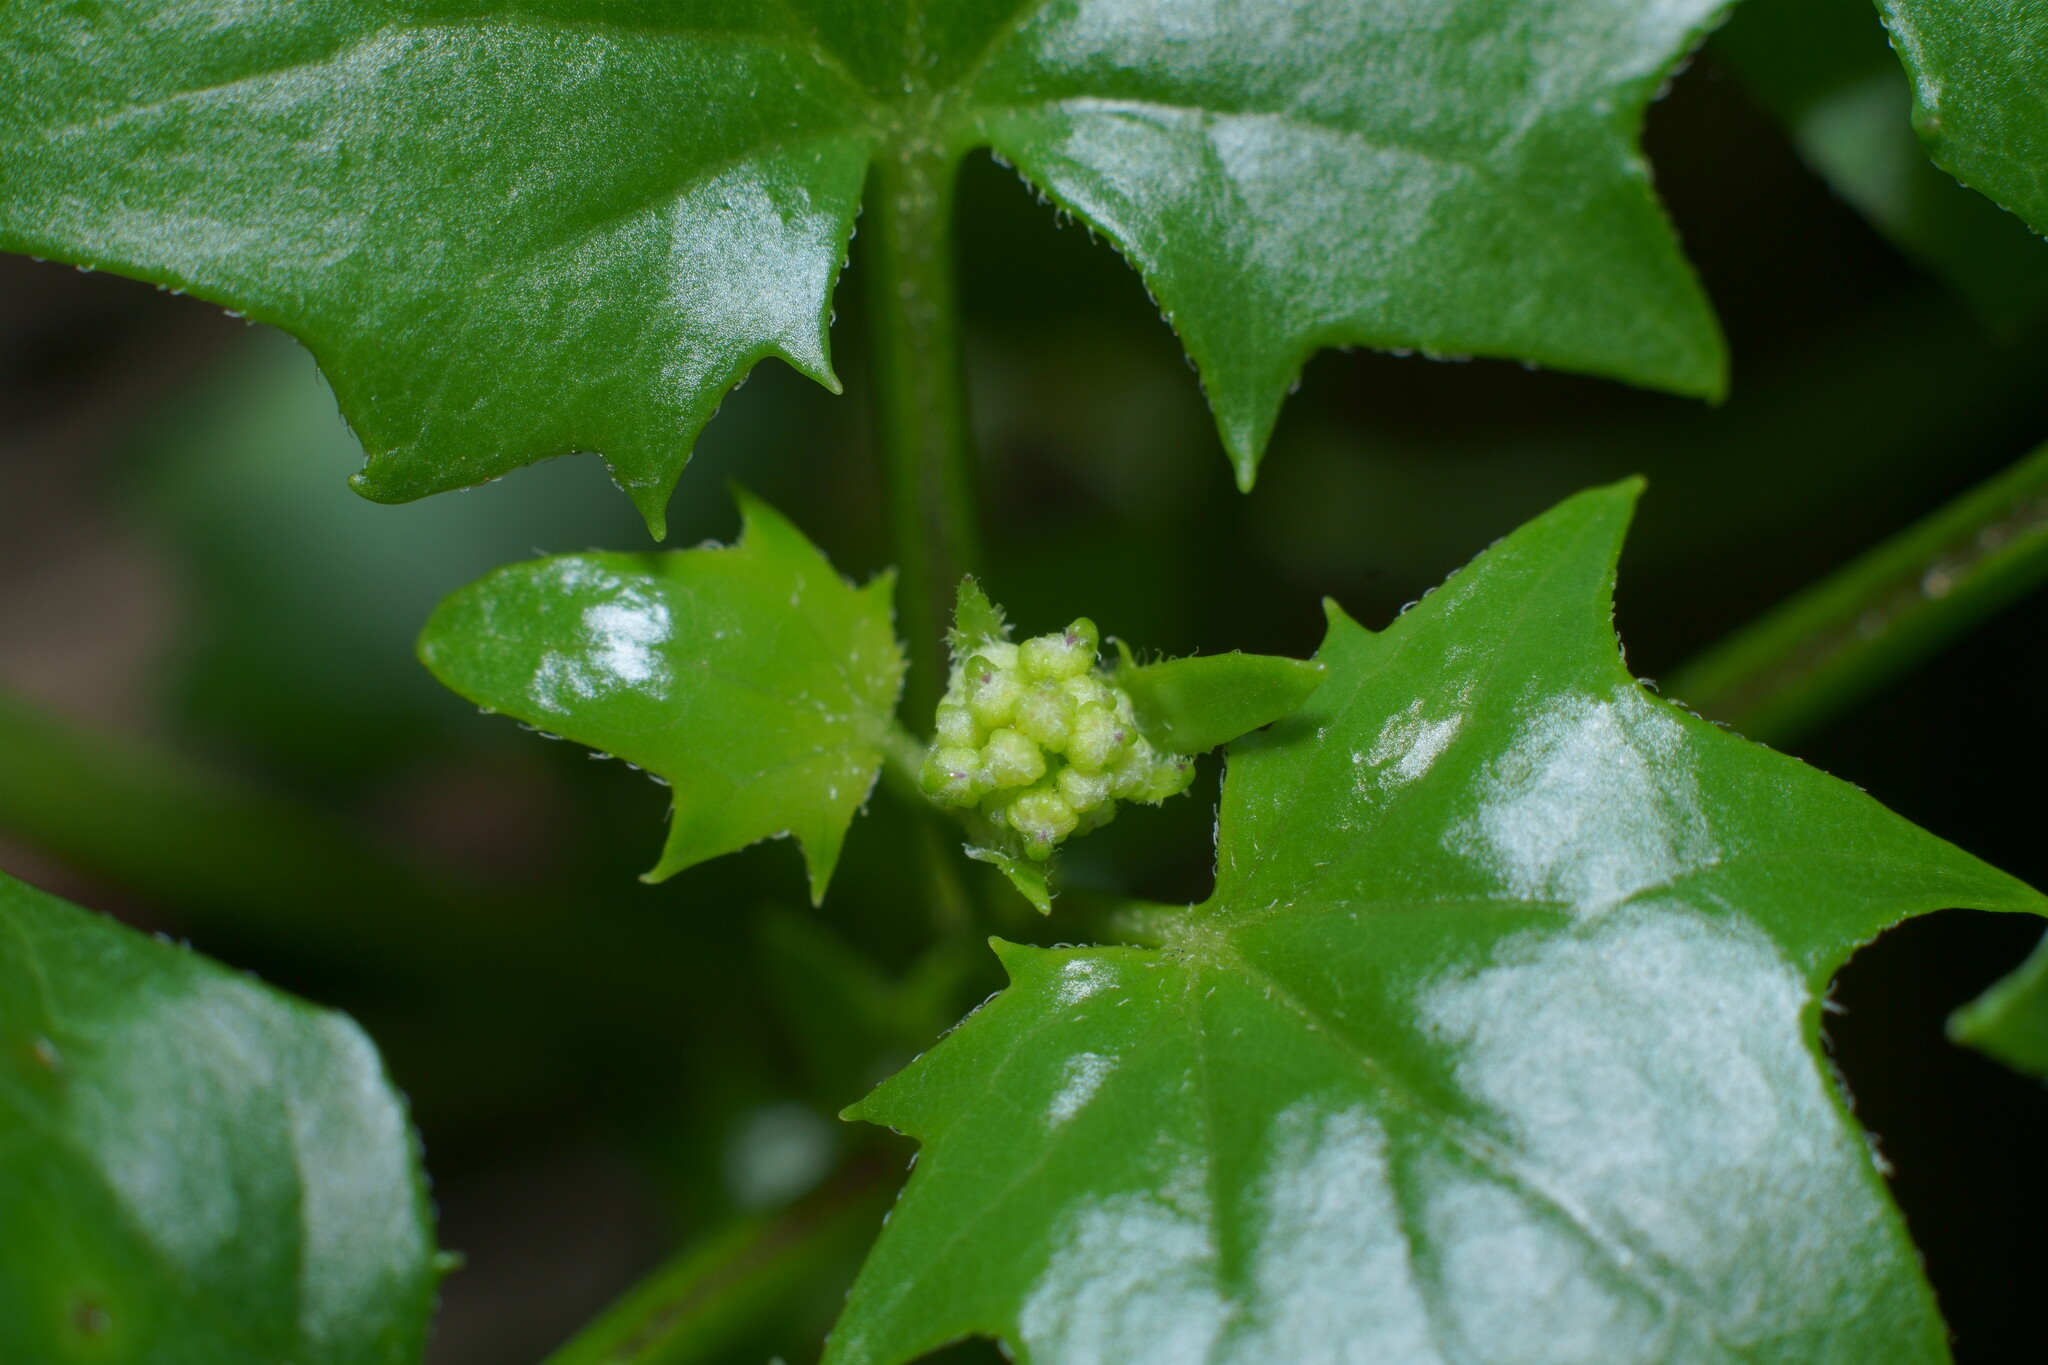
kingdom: Plantae
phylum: Tracheophyta
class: Magnoliopsida
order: Asterales
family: Asteraceae
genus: Delairea
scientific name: Delairea odorata
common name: Cape-ivy
